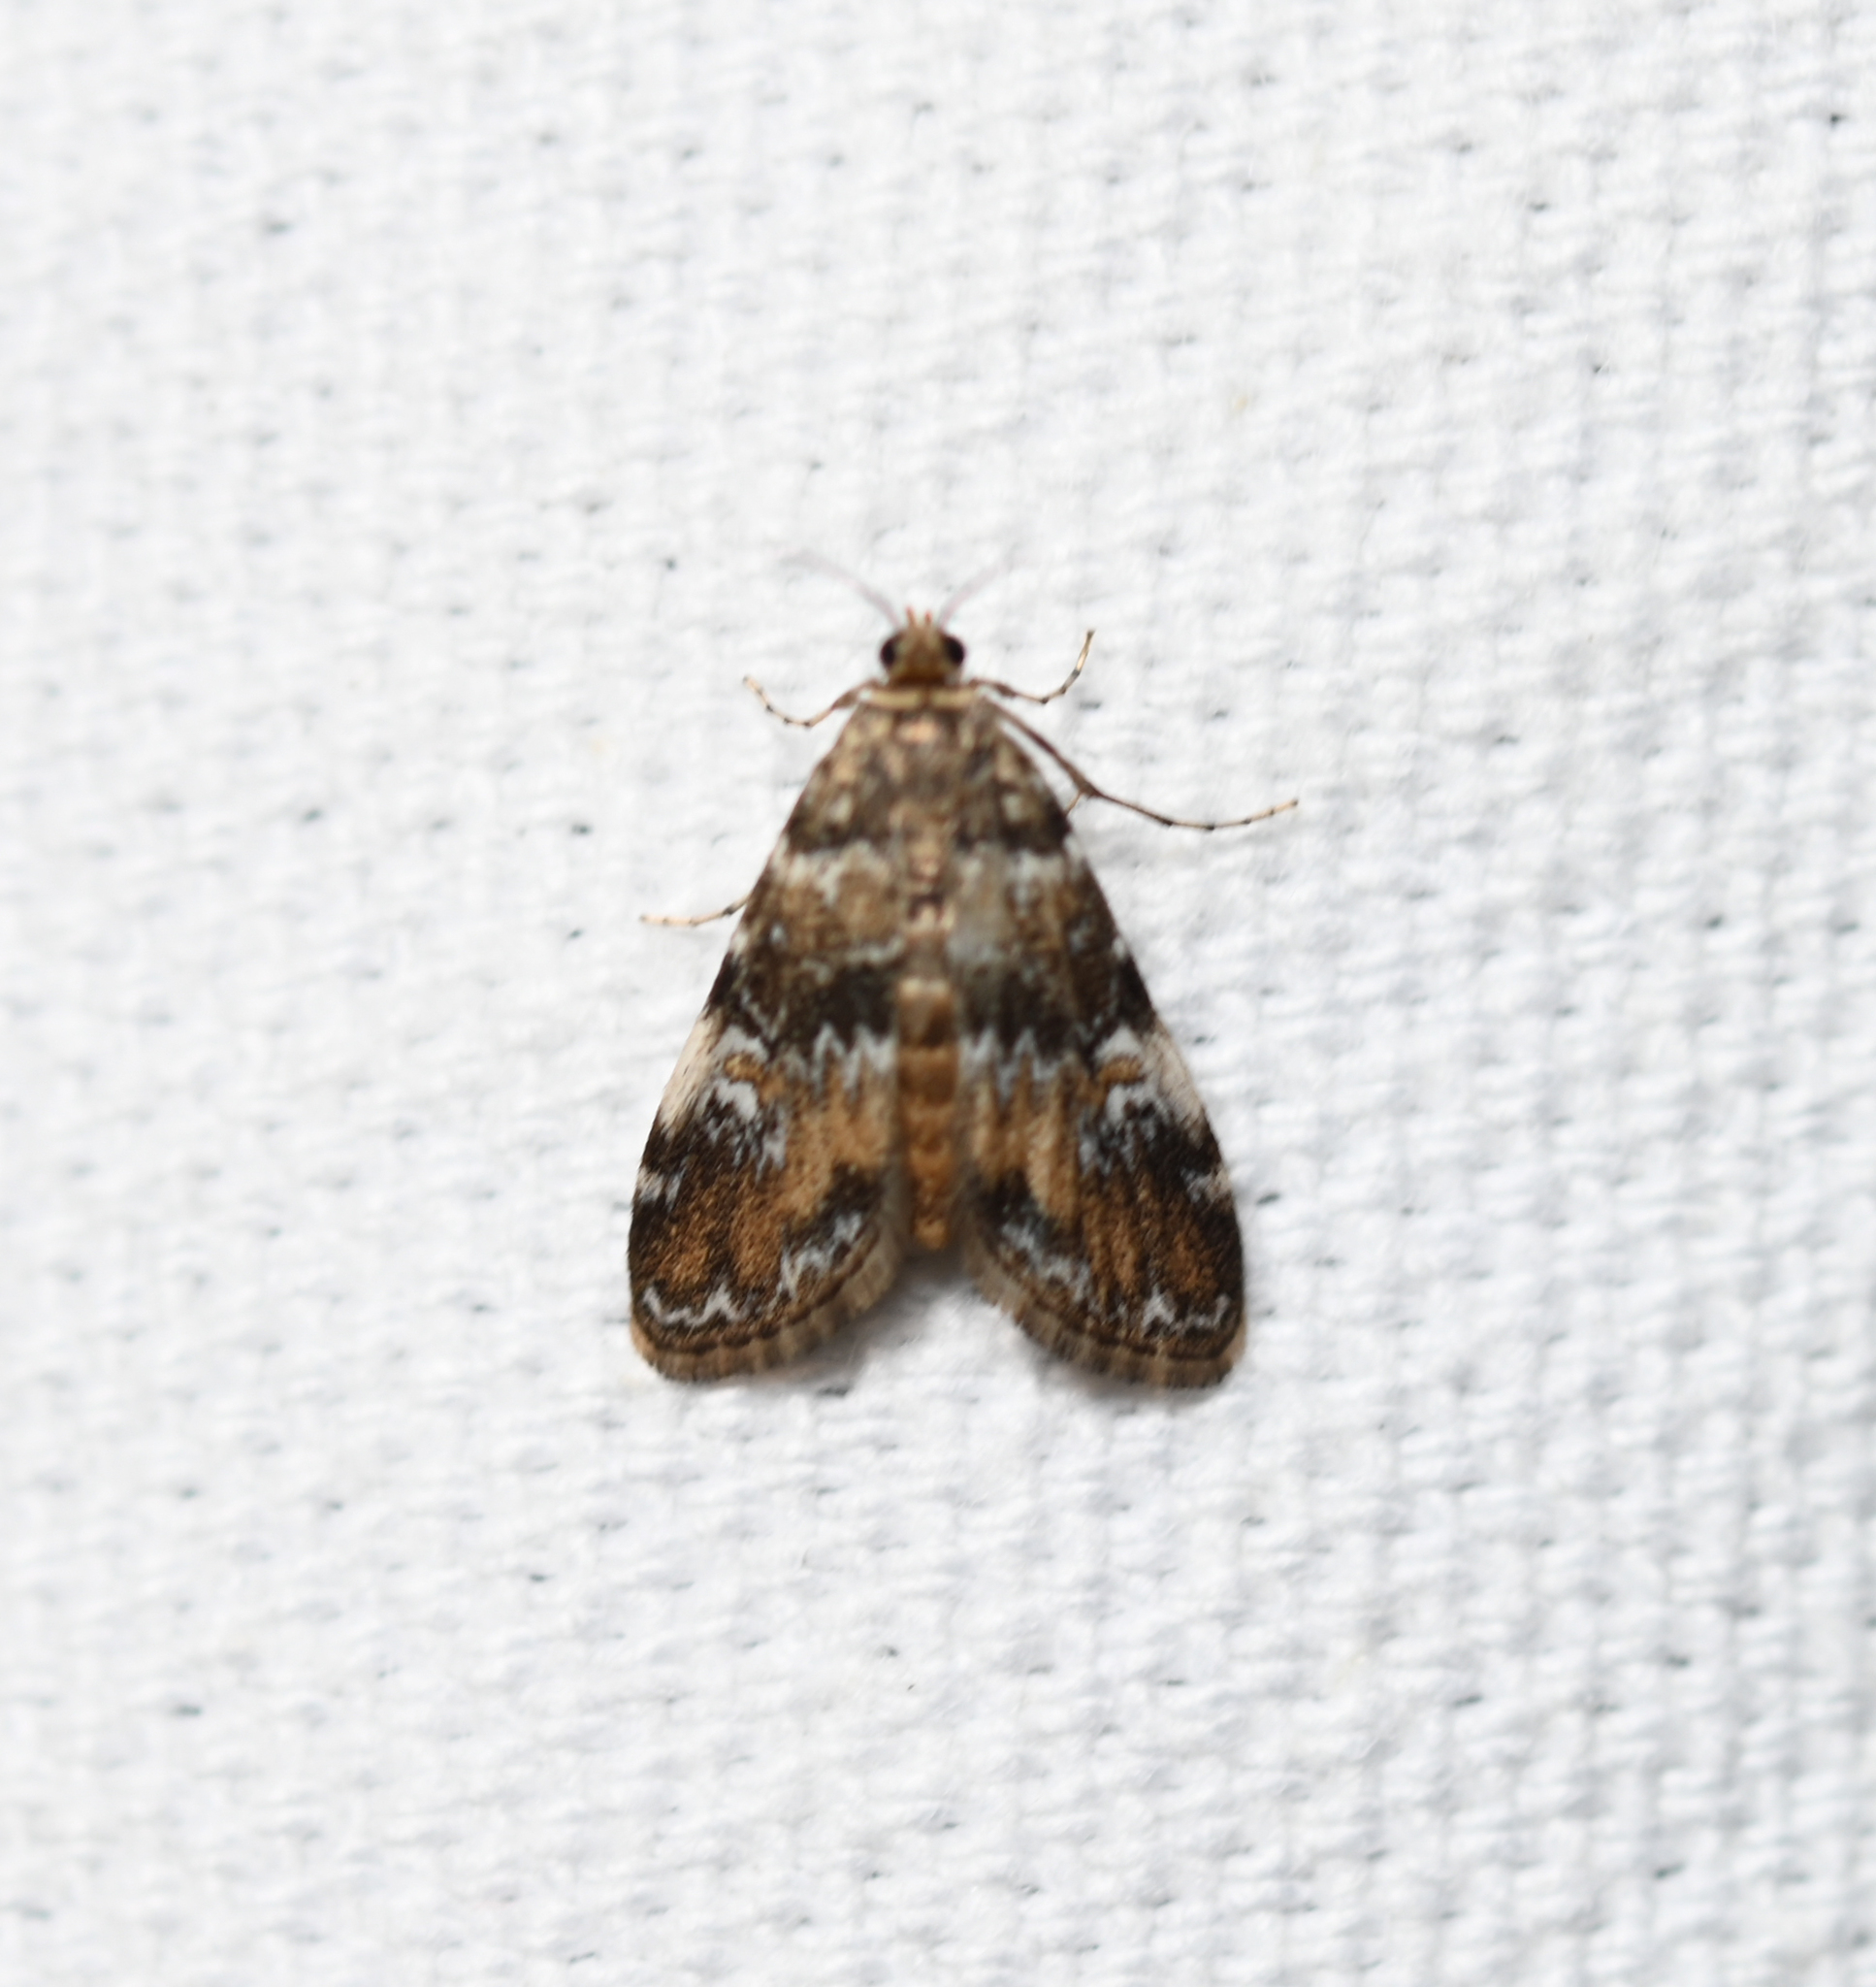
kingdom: Animalia
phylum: Arthropoda
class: Insecta
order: Lepidoptera
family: Crambidae
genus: Elophila
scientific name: Elophila obliteralis
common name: Waterlily leafcutter moth
